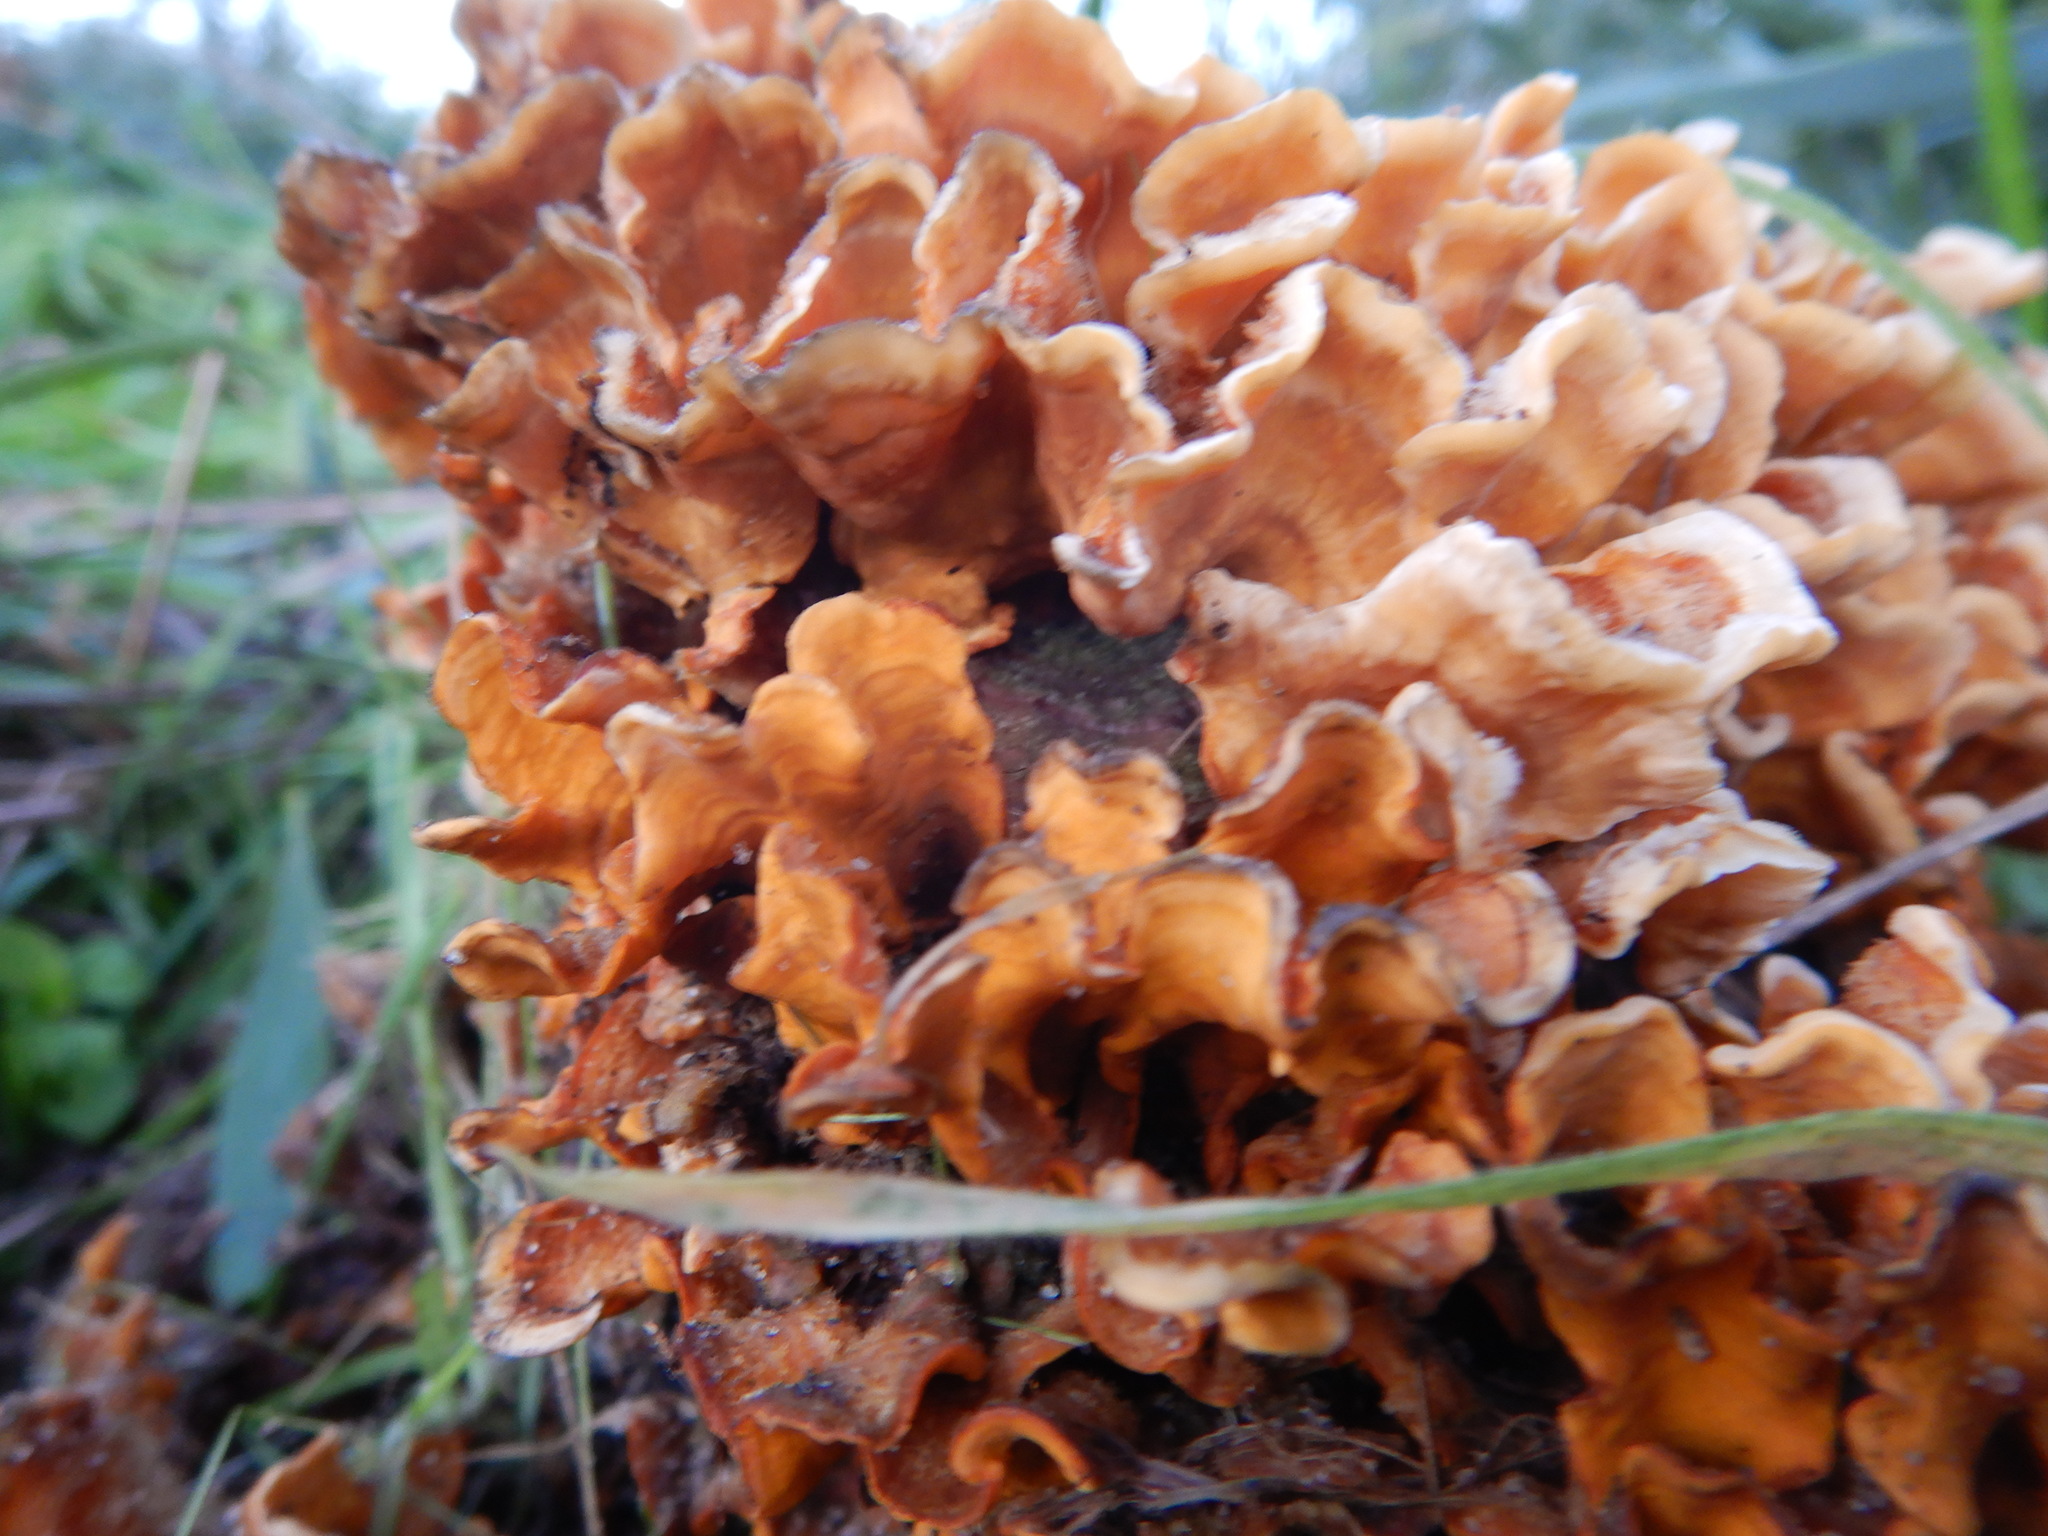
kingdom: Fungi
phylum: Basidiomycota
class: Agaricomycetes
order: Russulales
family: Stereaceae
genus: Stereum
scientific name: Stereum hirsutum
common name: Hairy curtain crust
